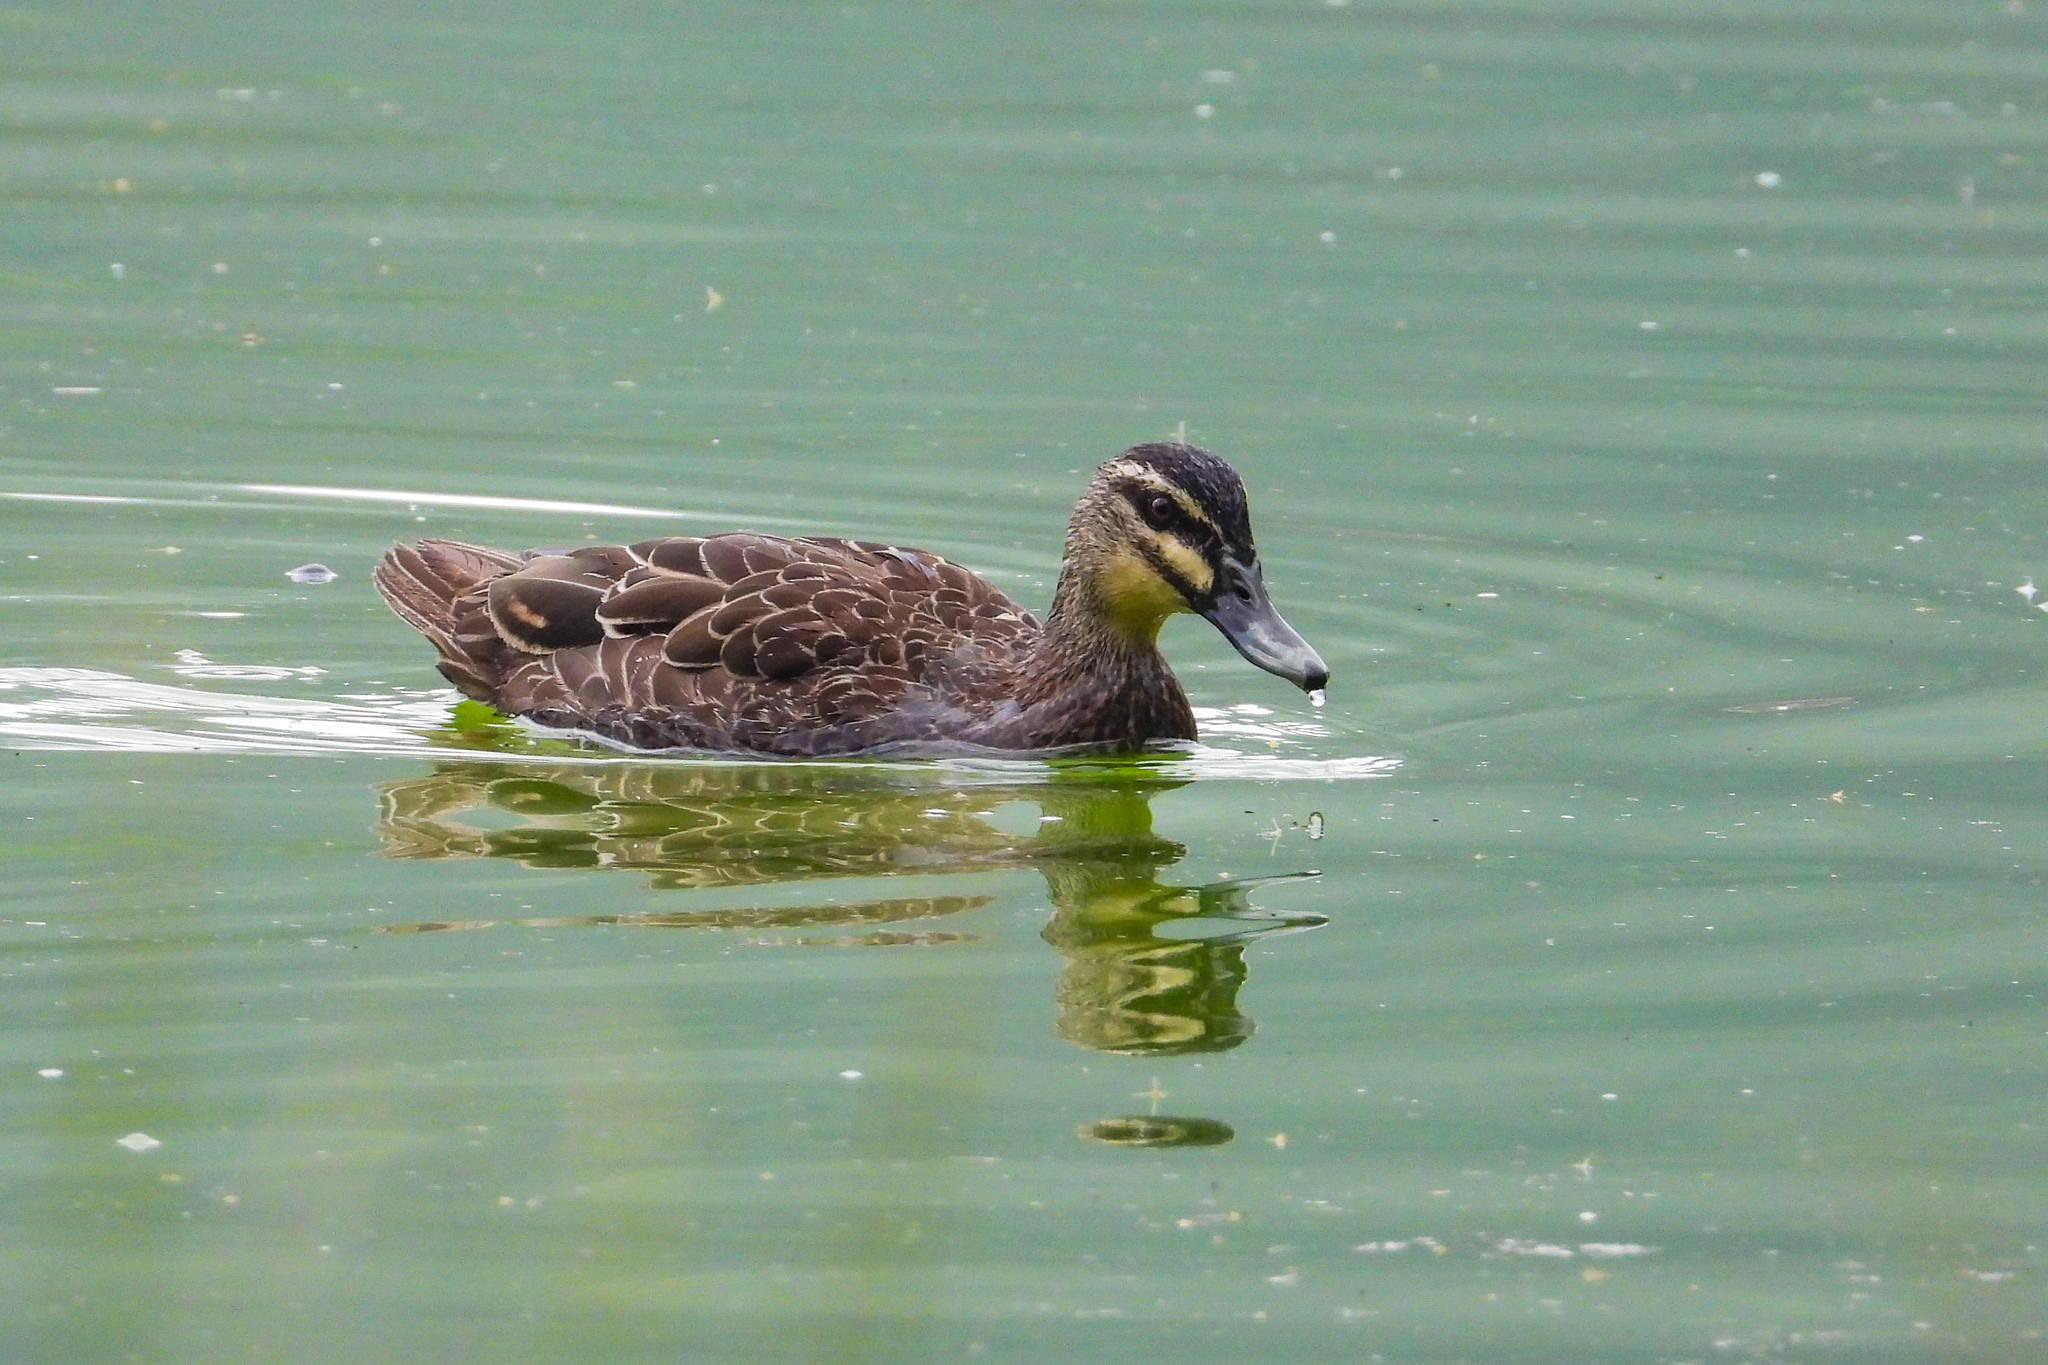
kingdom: Animalia
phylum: Chordata
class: Aves
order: Anseriformes
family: Anatidae
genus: Anas
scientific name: Anas superciliosa
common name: Pacific black duck
